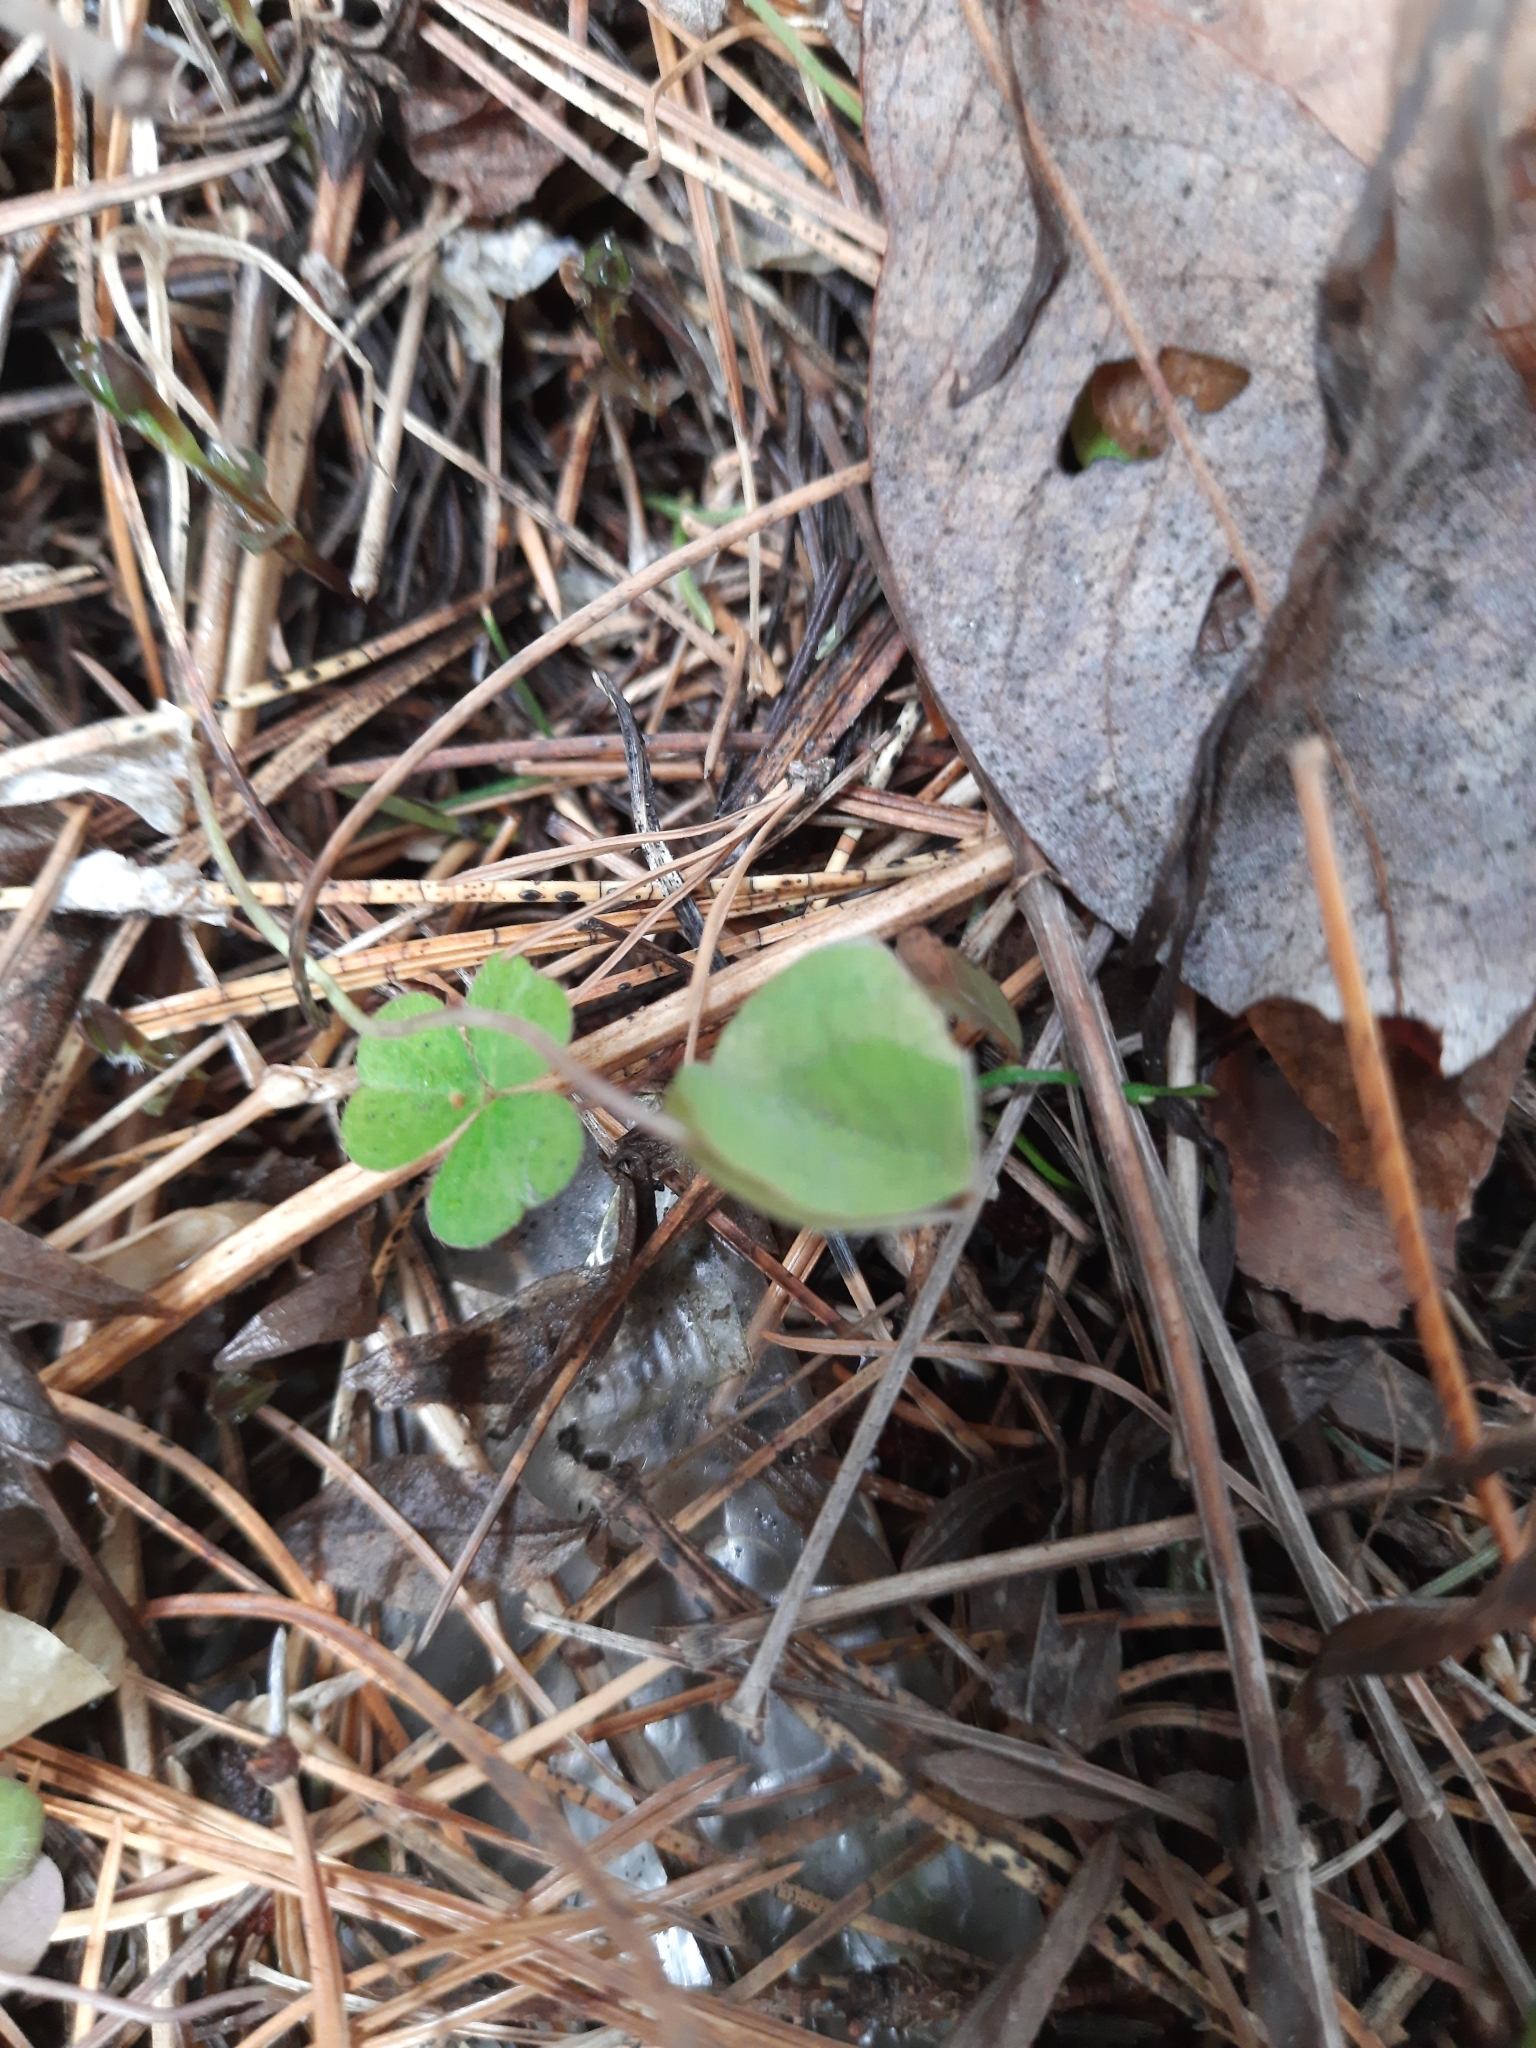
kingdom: Plantae
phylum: Tracheophyta
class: Magnoliopsida
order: Oxalidales
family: Oxalidaceae
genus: Oxalis
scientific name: Oxalis acetosella
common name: Wood-sorrel
